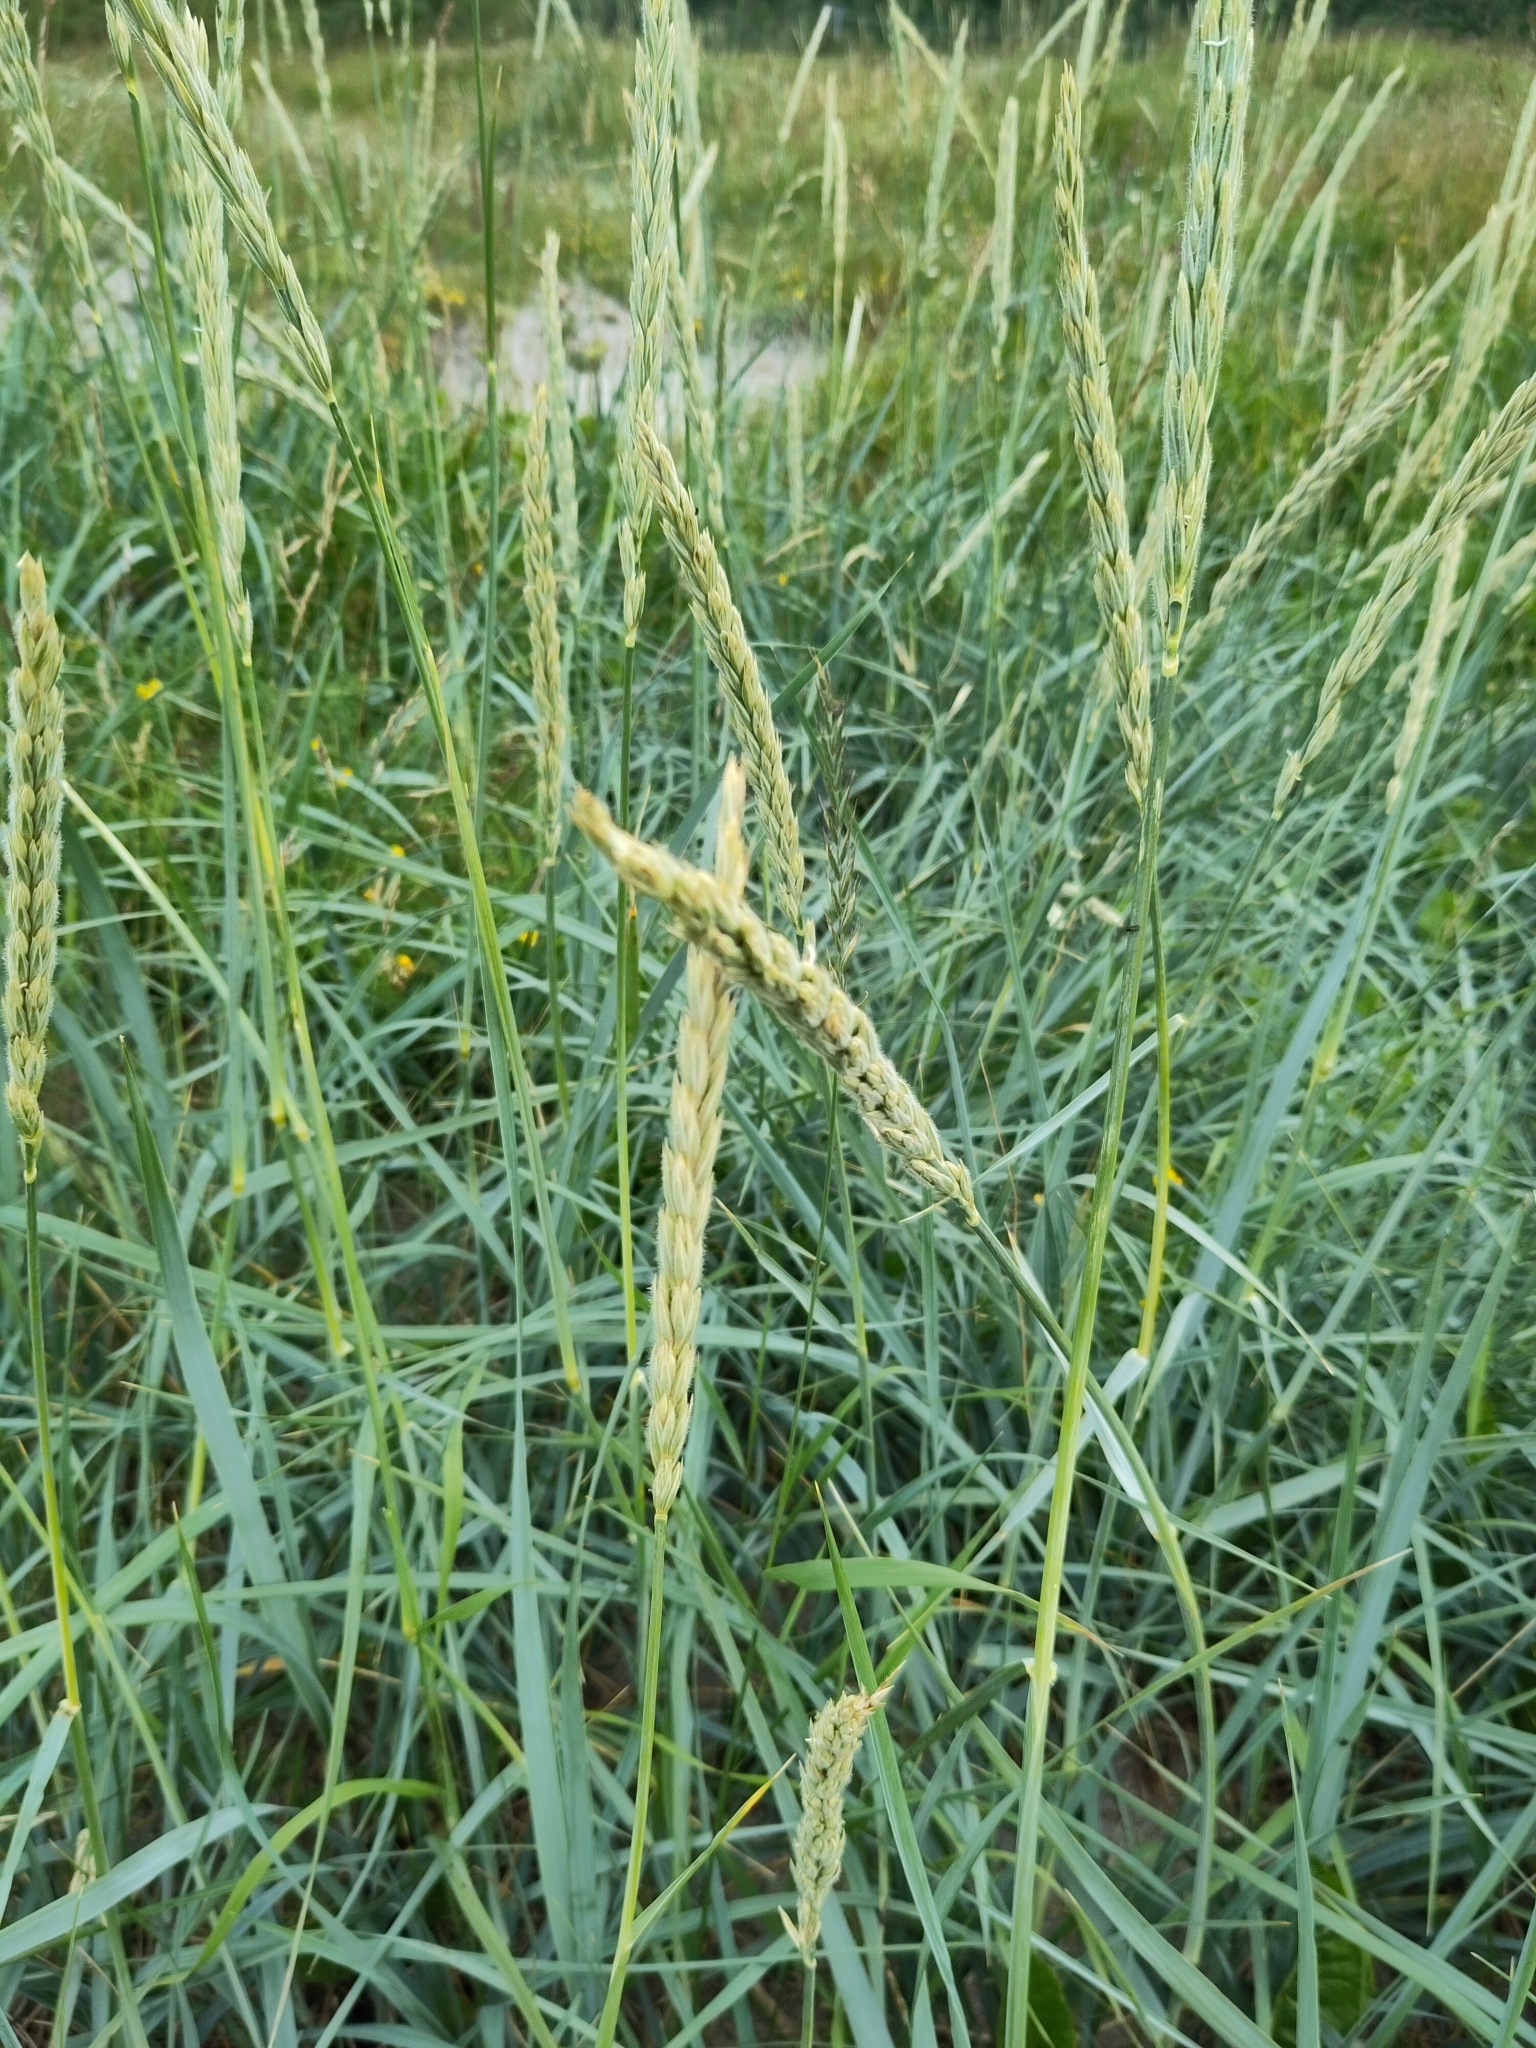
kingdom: Plantae
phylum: Tracheophyta
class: Liliopsida
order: Poales
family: Poaceae
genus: Leymus
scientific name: Leymus arenarius
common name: Lyme-grass
